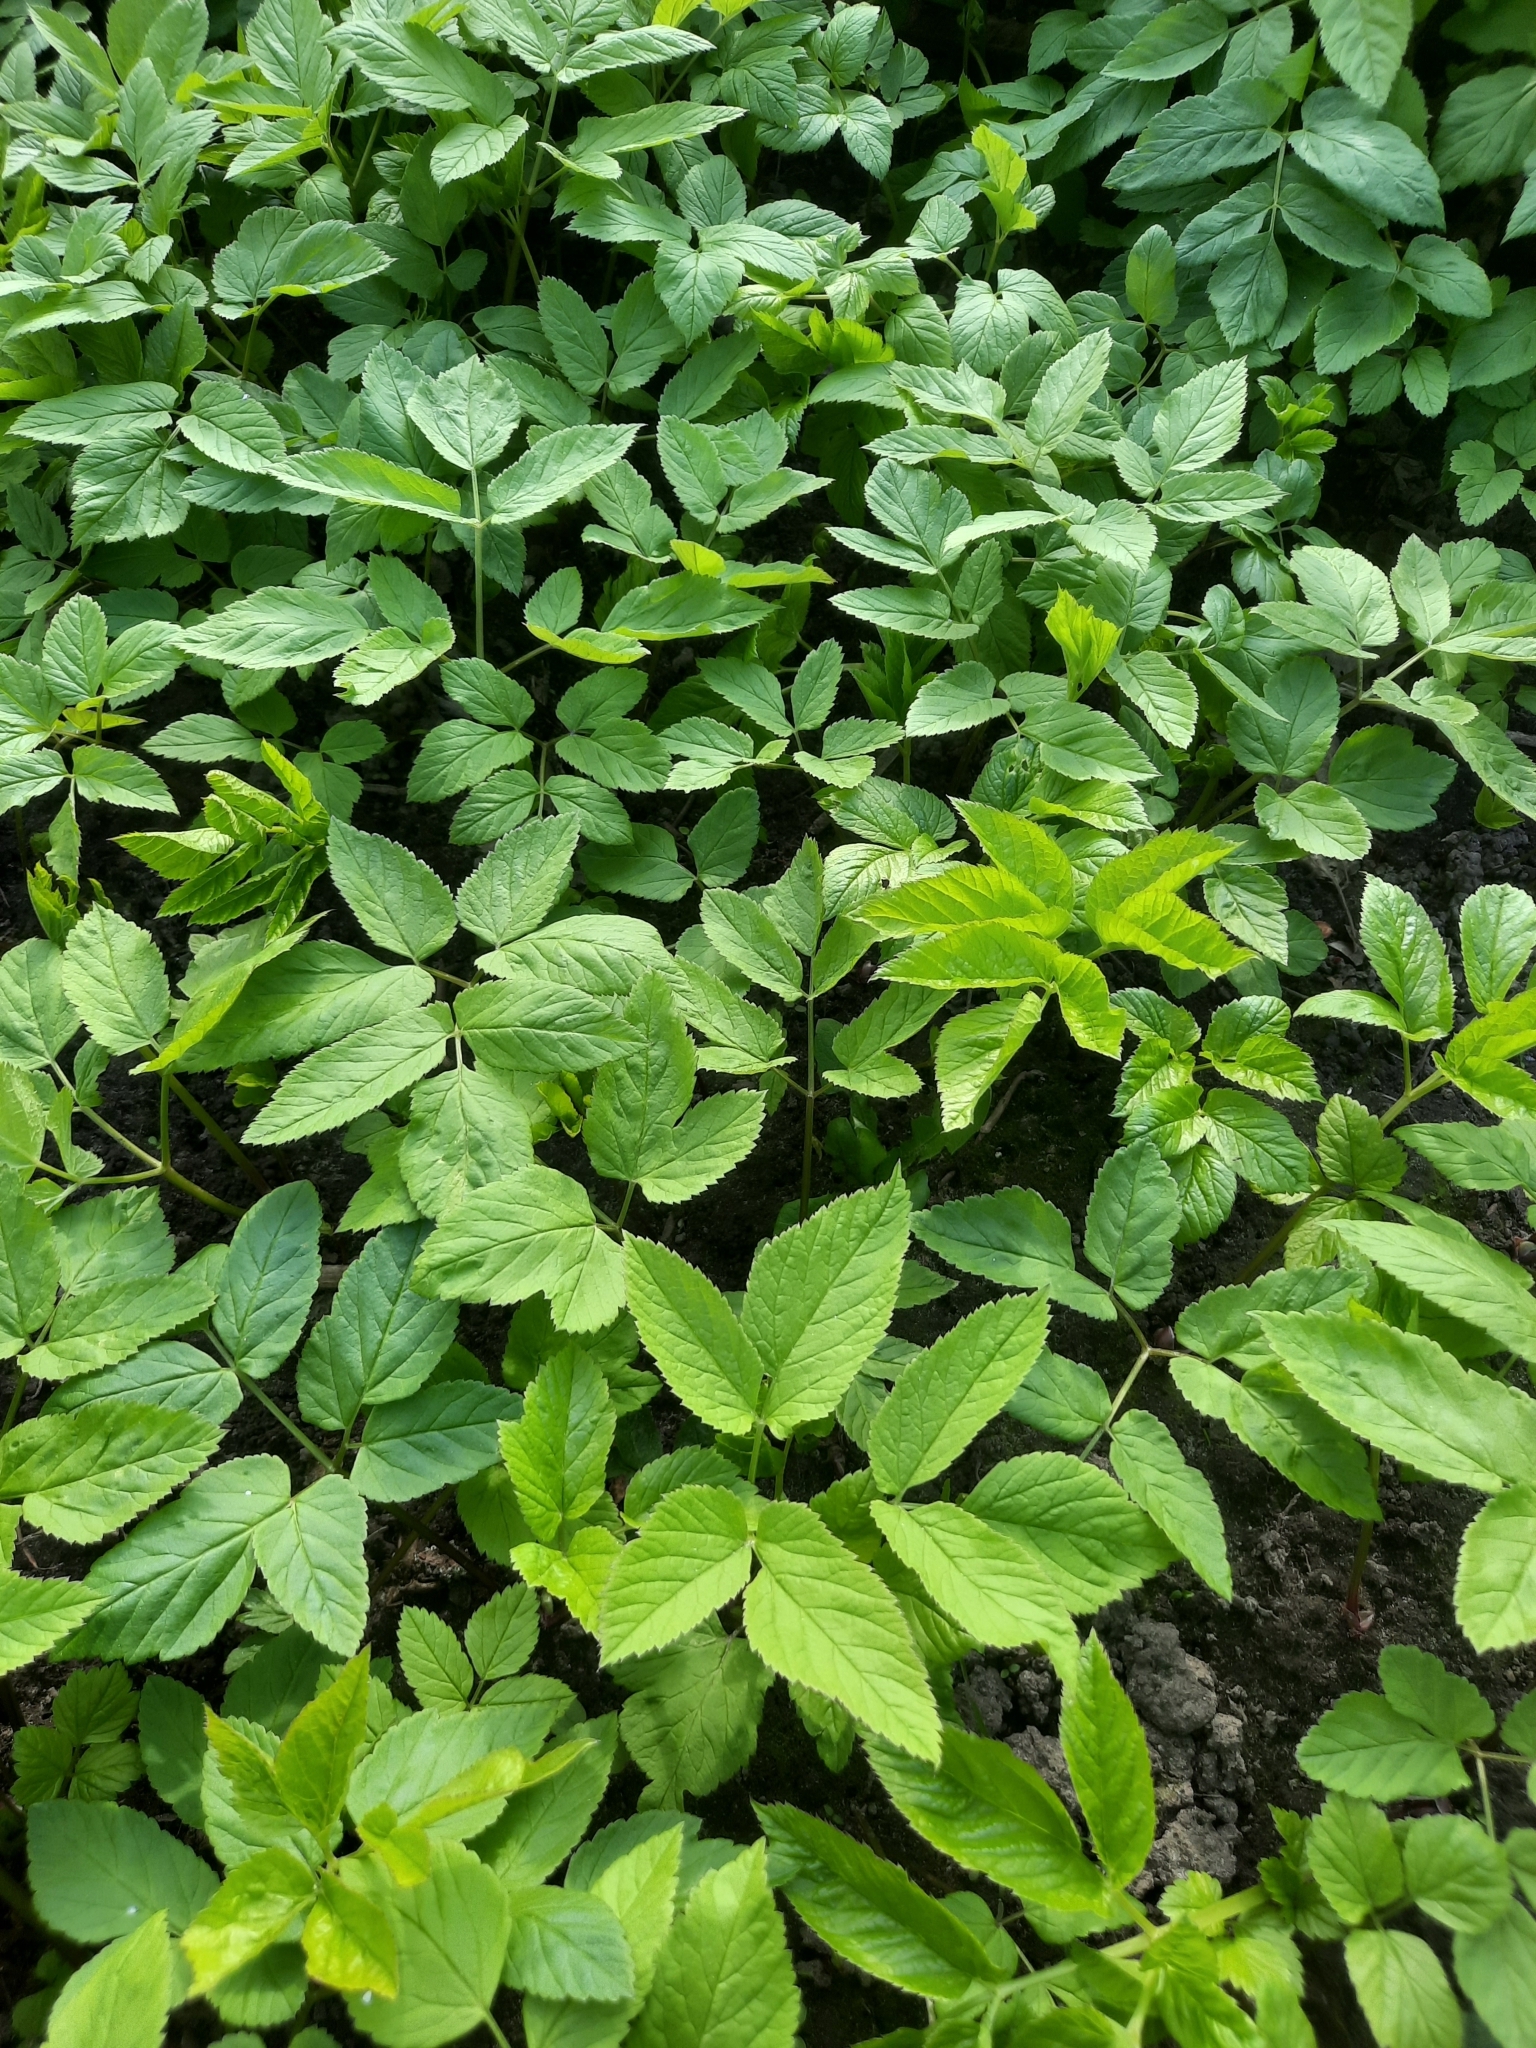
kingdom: Plantae
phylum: Tracheophyta
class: Magnoliopsida
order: Apiales
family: Apiaceae
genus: Aegopodium
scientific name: Aegopodium podagraria
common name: Ground-elder
